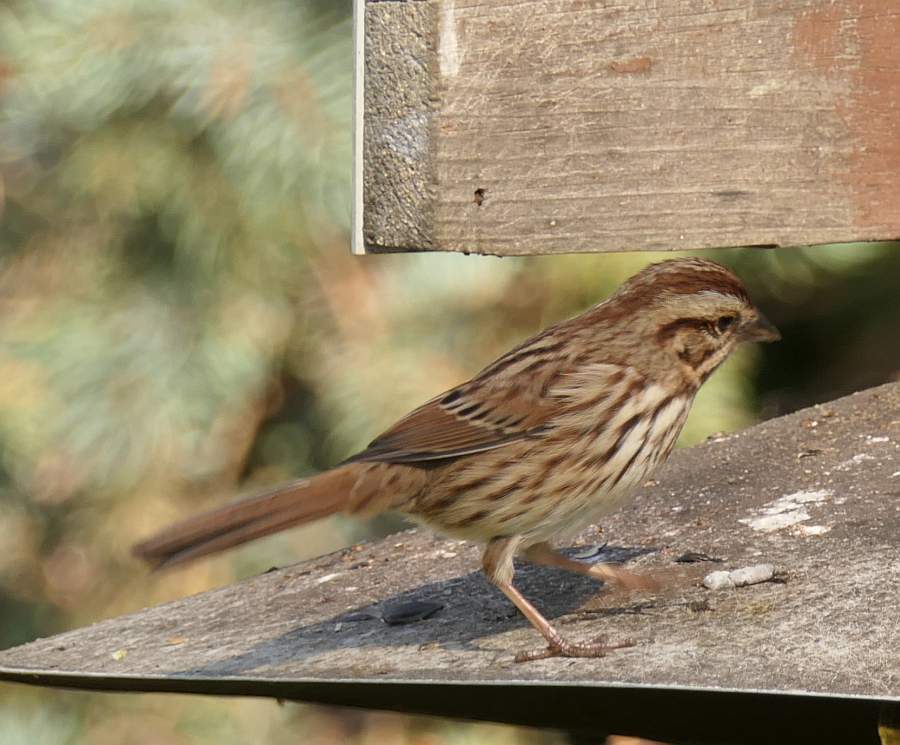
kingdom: Animalia
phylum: Chordata
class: Aves
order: Passeriformes
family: Passerellidae
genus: Melospiza
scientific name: Melospiza melodia
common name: Song sparrow
